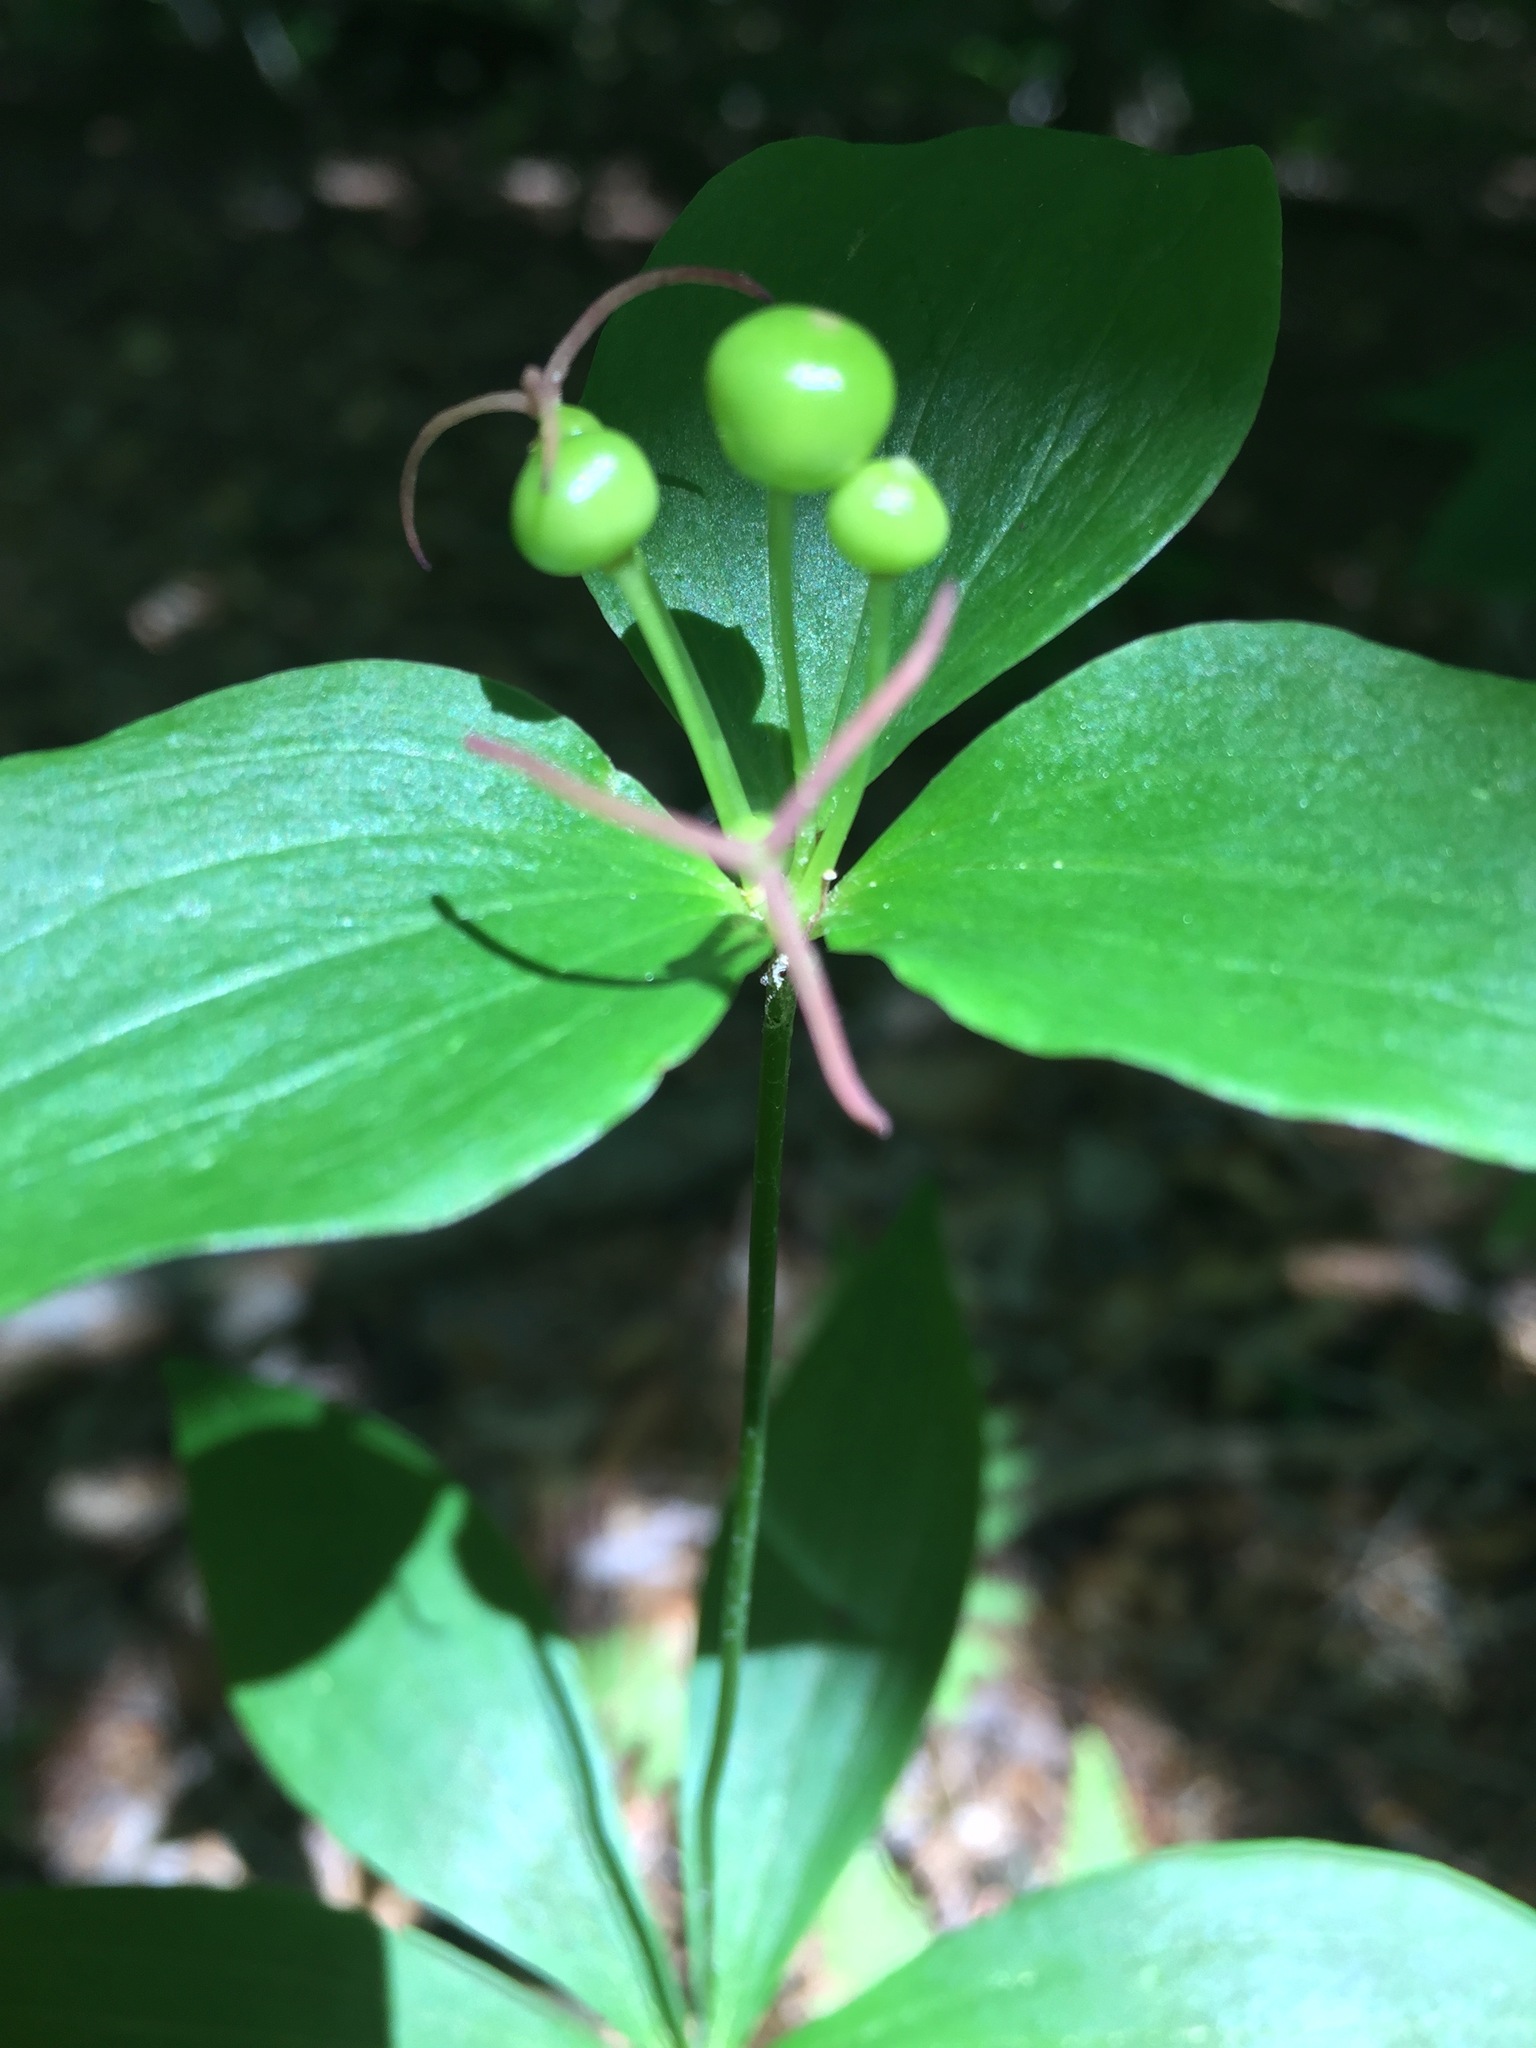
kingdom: Plantae
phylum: Tracheophyta
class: Liliopsida
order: Liliales
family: Liliaceae
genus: Medeola
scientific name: Medeola virginiana
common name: Indian cucumber-root
